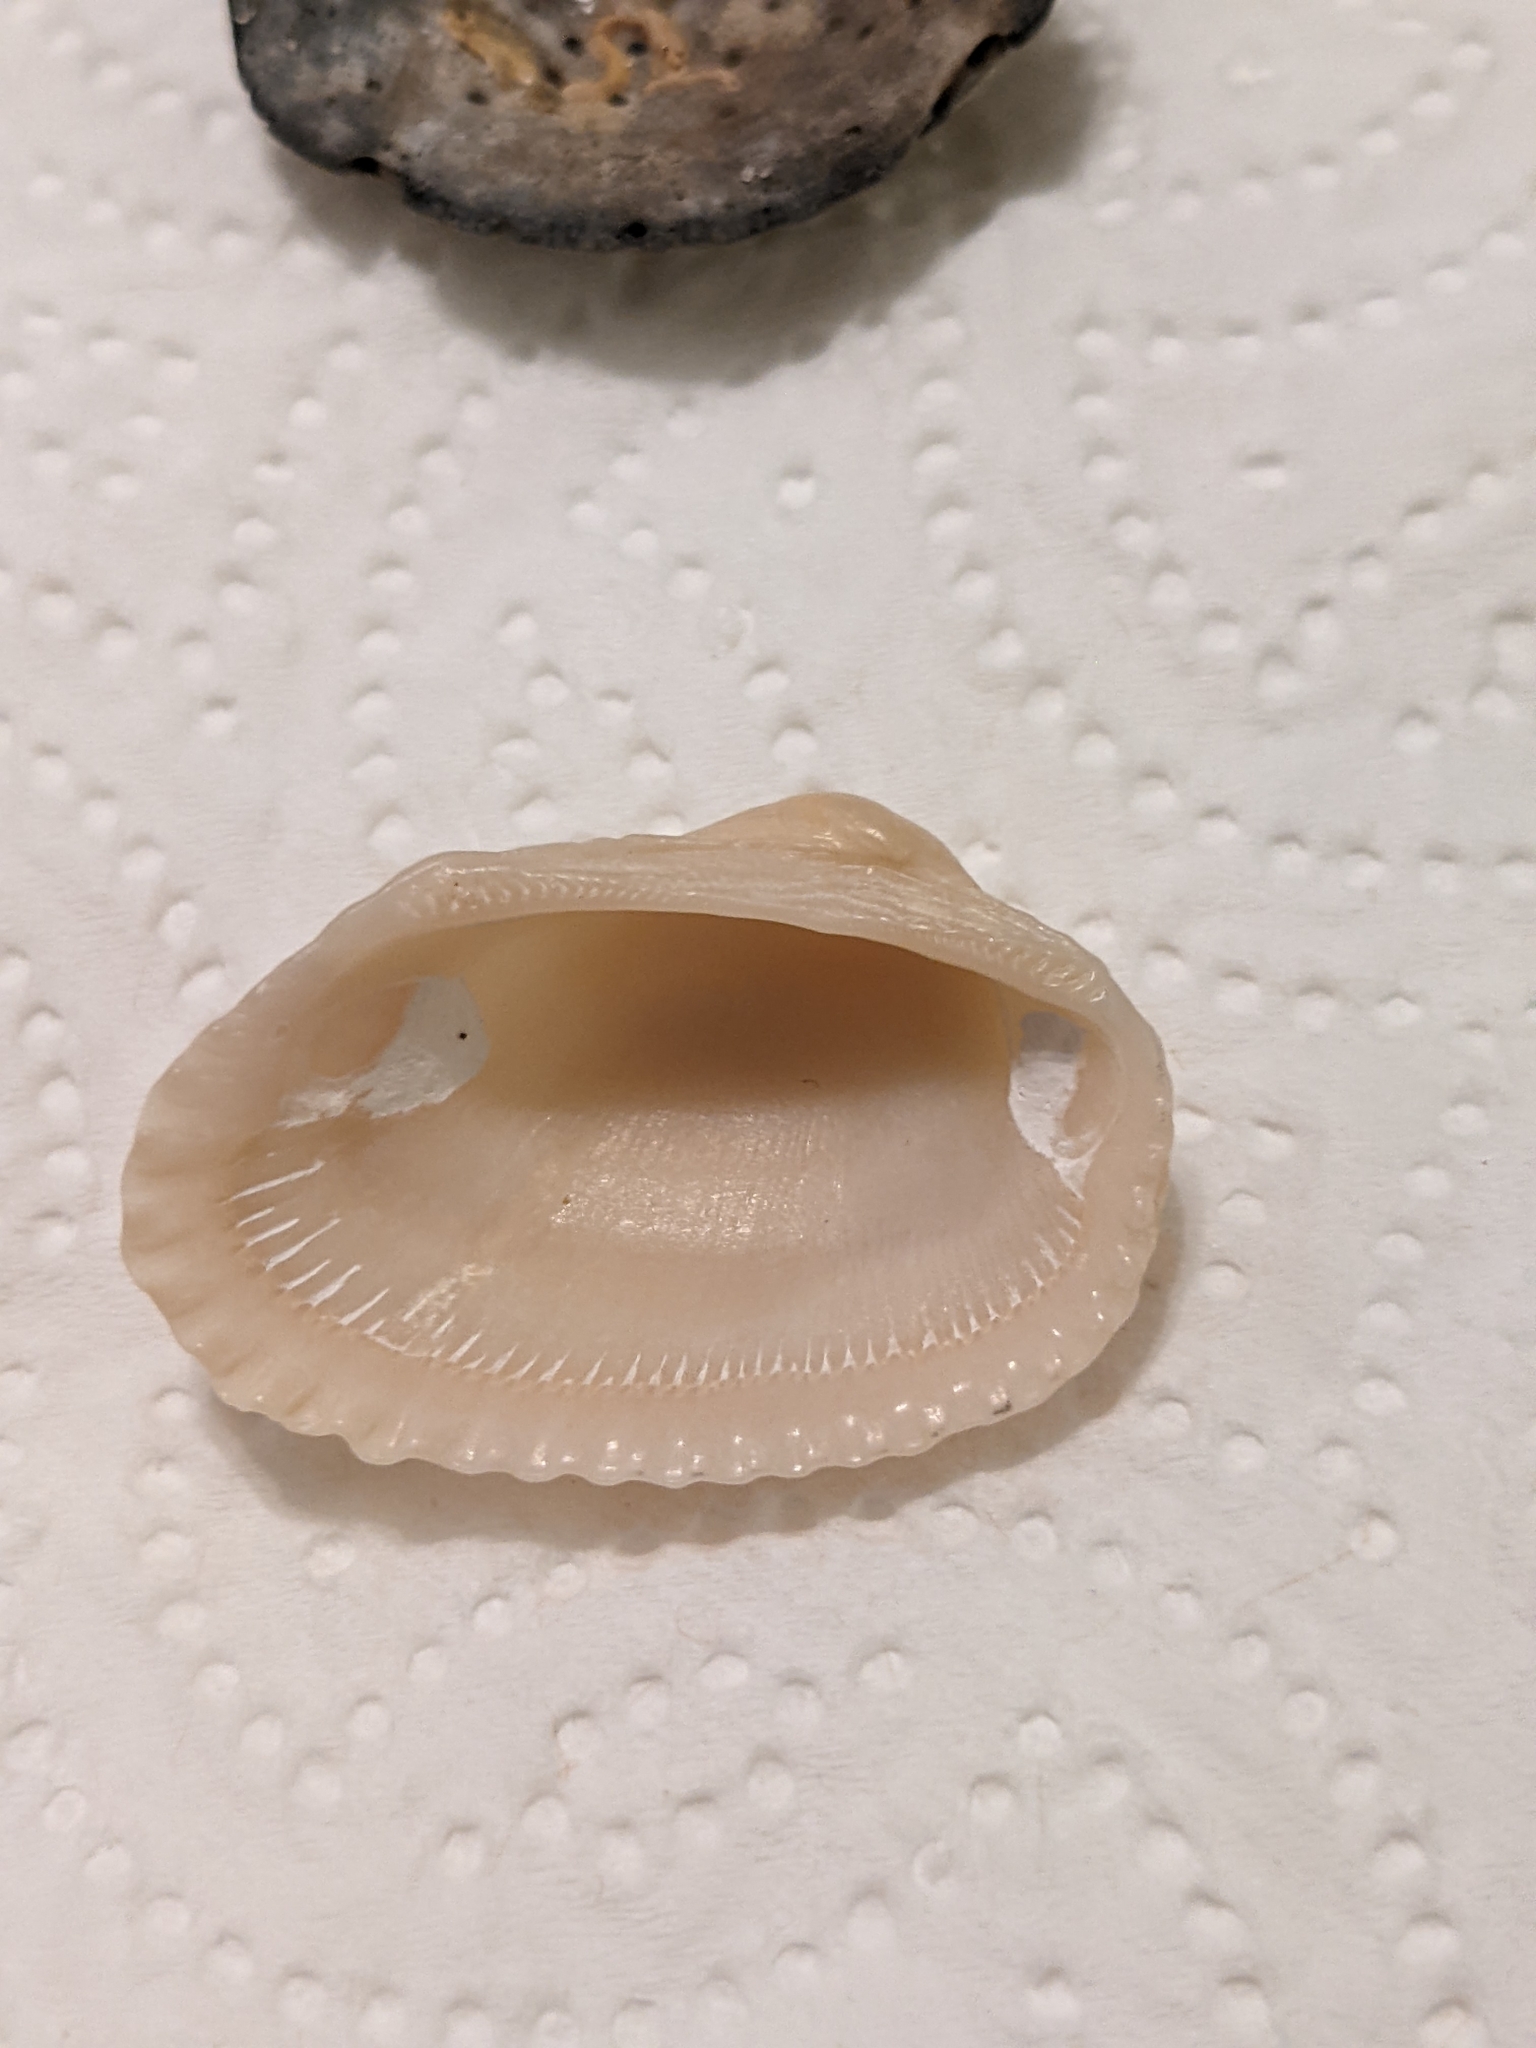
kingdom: Animalia
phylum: Mollusca
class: Bivalvia
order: Arcida
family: Arcidae
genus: Anadara
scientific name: Anadara transversa
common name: Transverse ark
